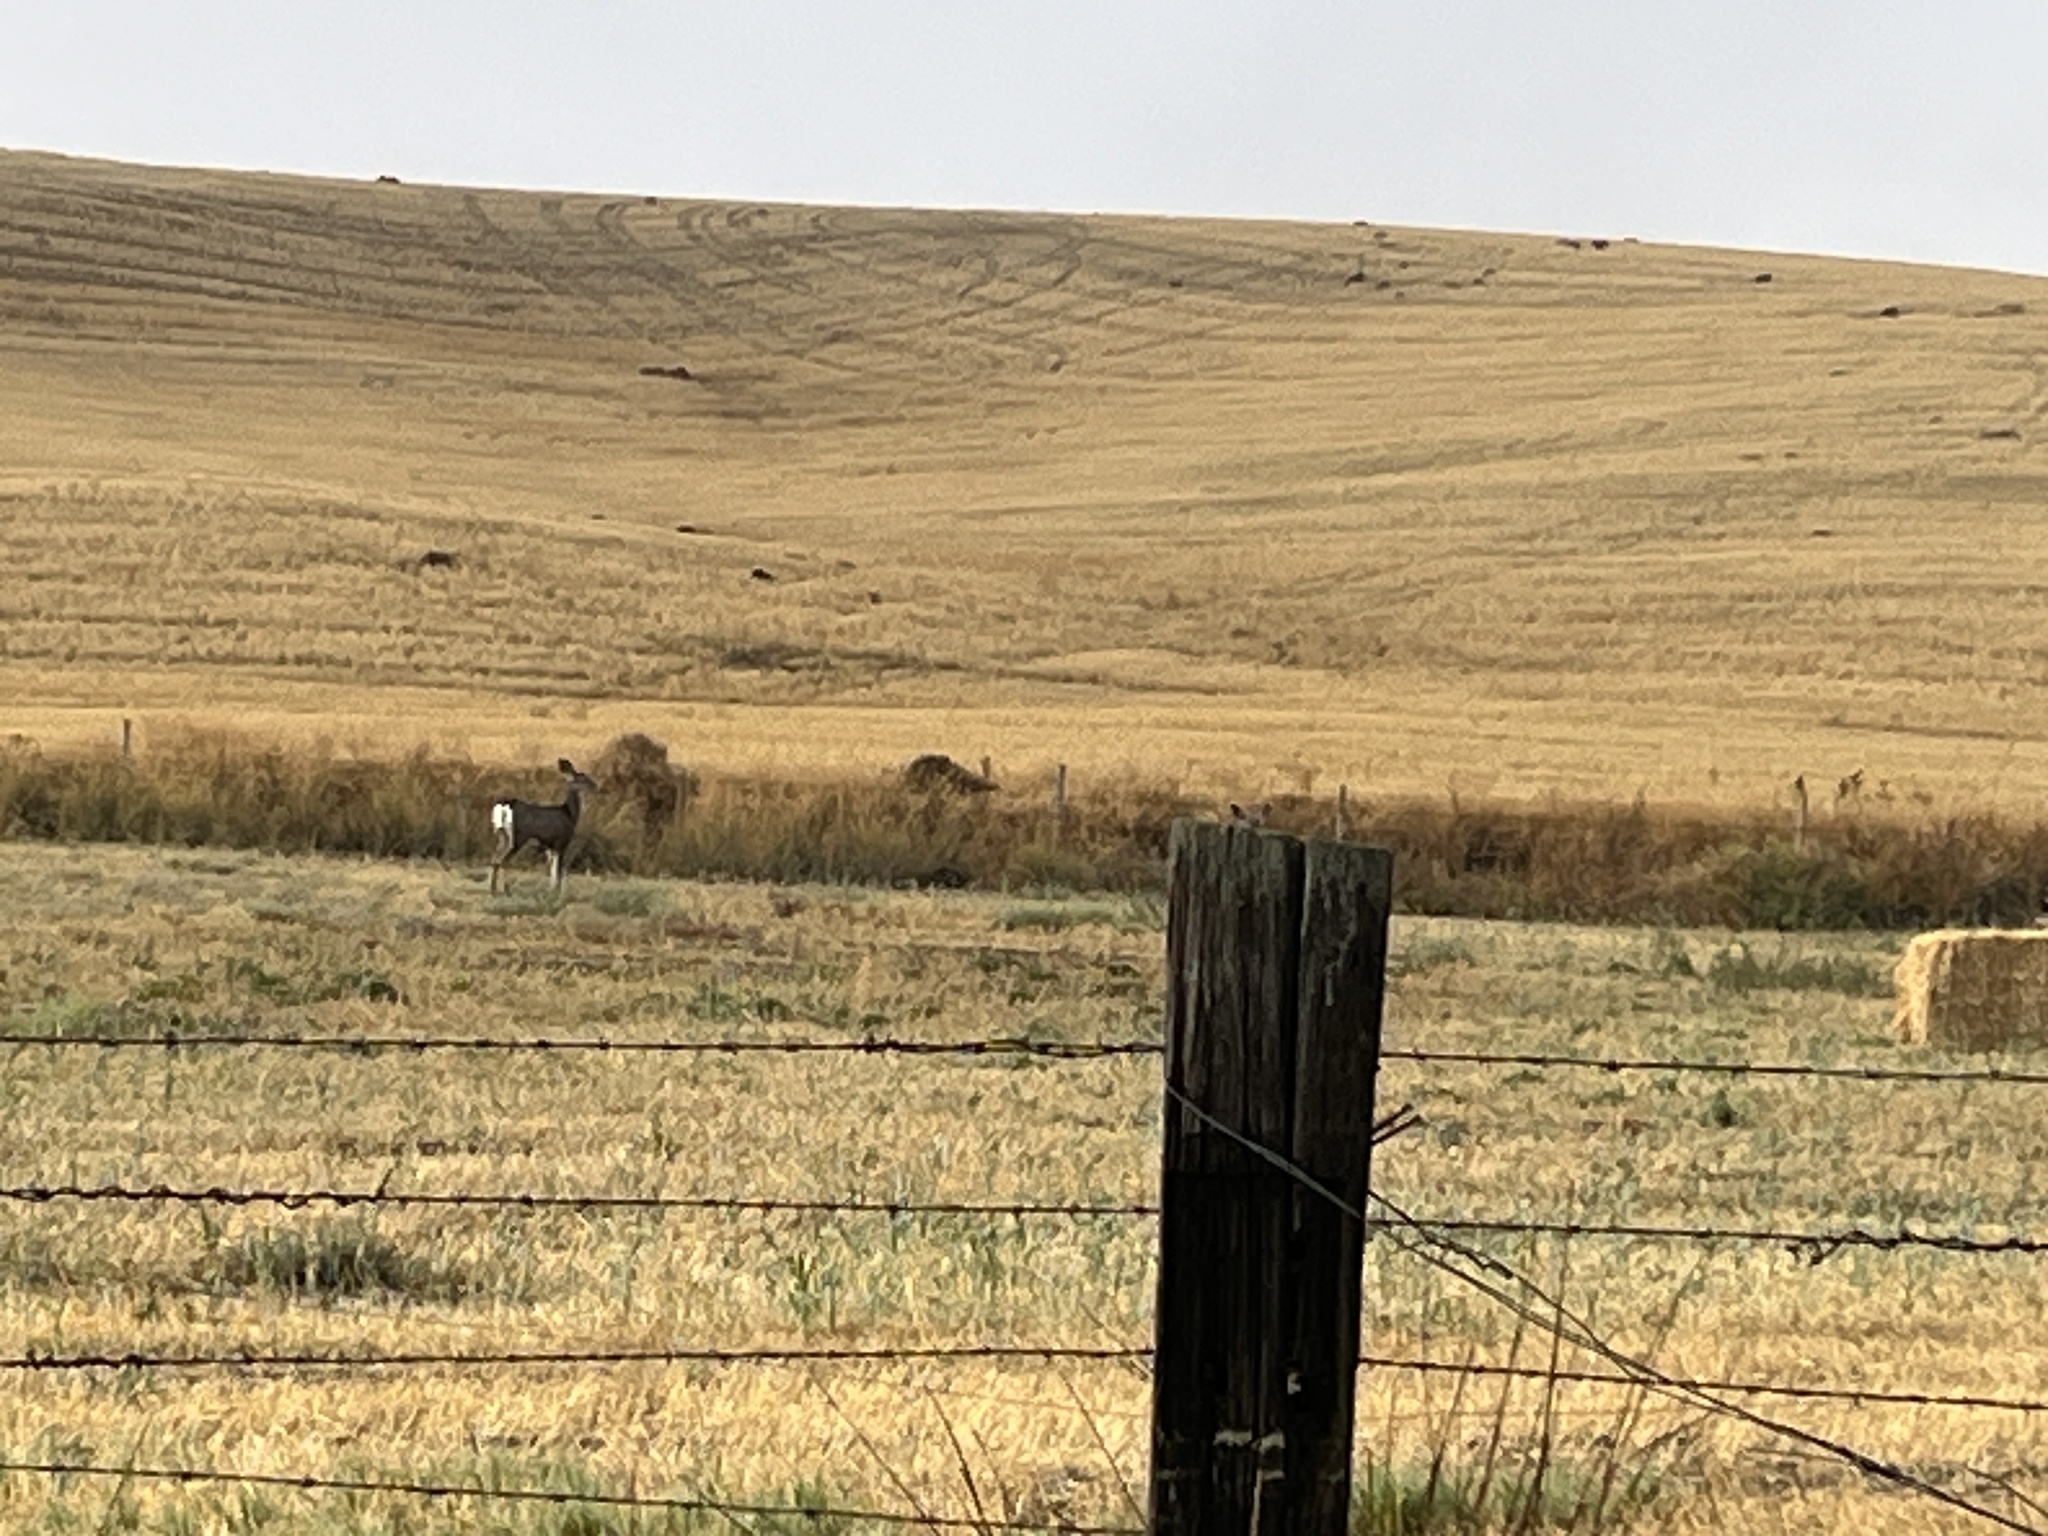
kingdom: Animalia
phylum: Chordata
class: Mammalia
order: Artiodactyla
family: Cervidae
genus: Odocoileus
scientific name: Odocoileus hemionus
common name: Mule deer
